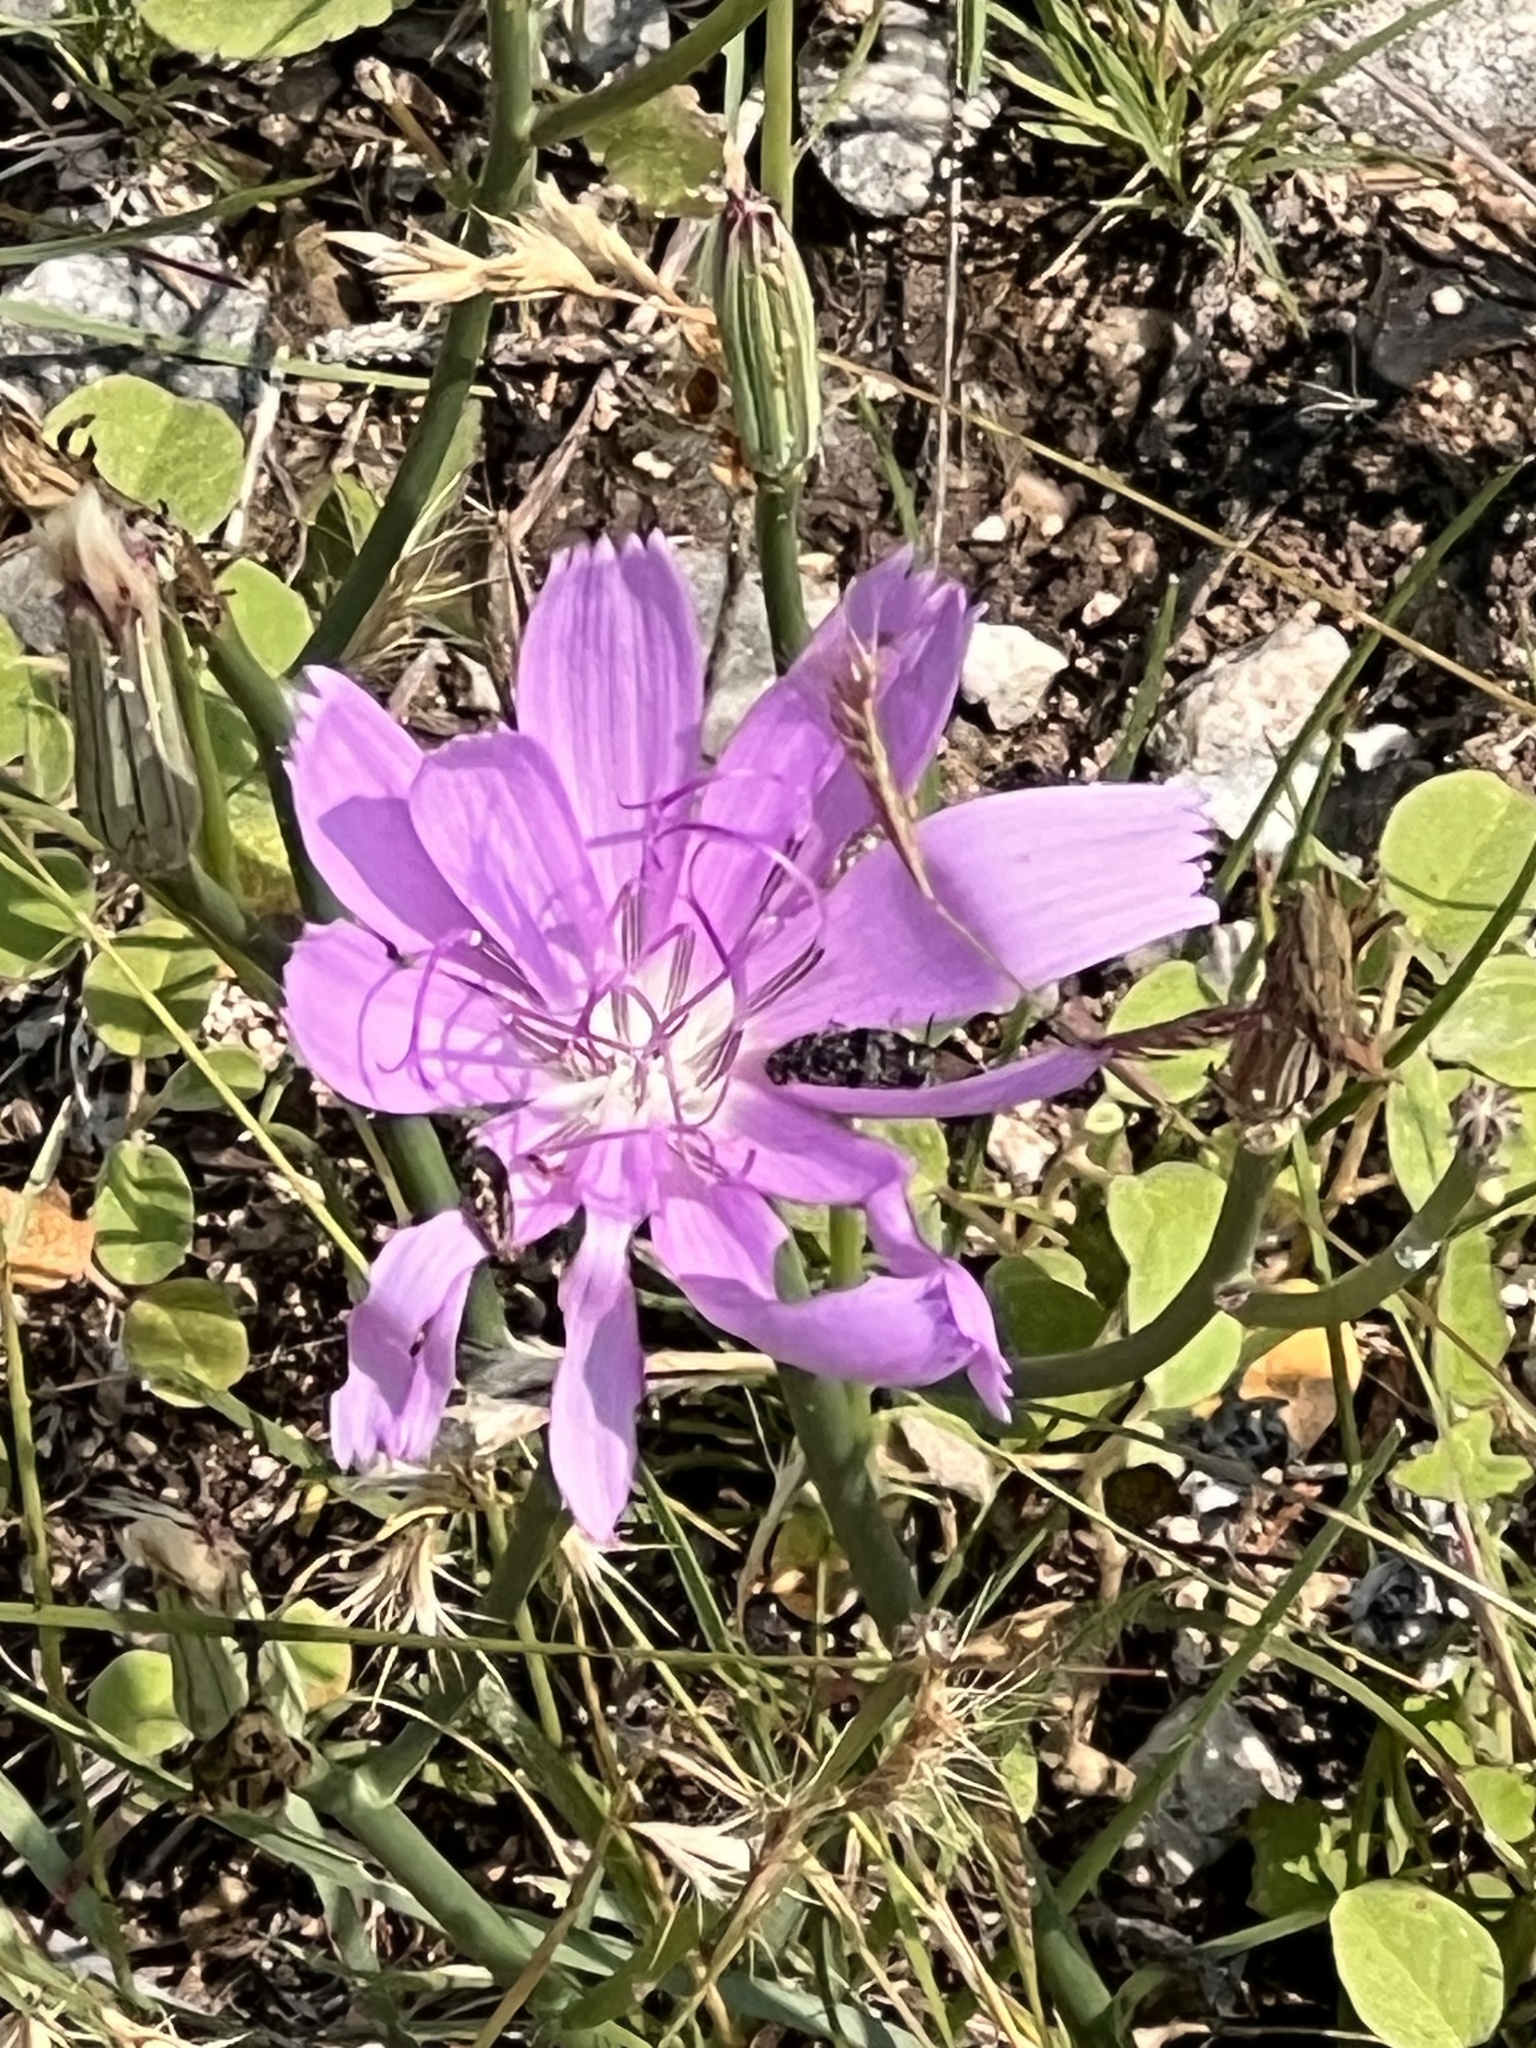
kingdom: Plantae
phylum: Tracheophyta
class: Magnoliopsida
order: Asterales
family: Asteraceae
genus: Lygodesmia
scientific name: Lygodesmia texana
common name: Texas skeleton-plant
